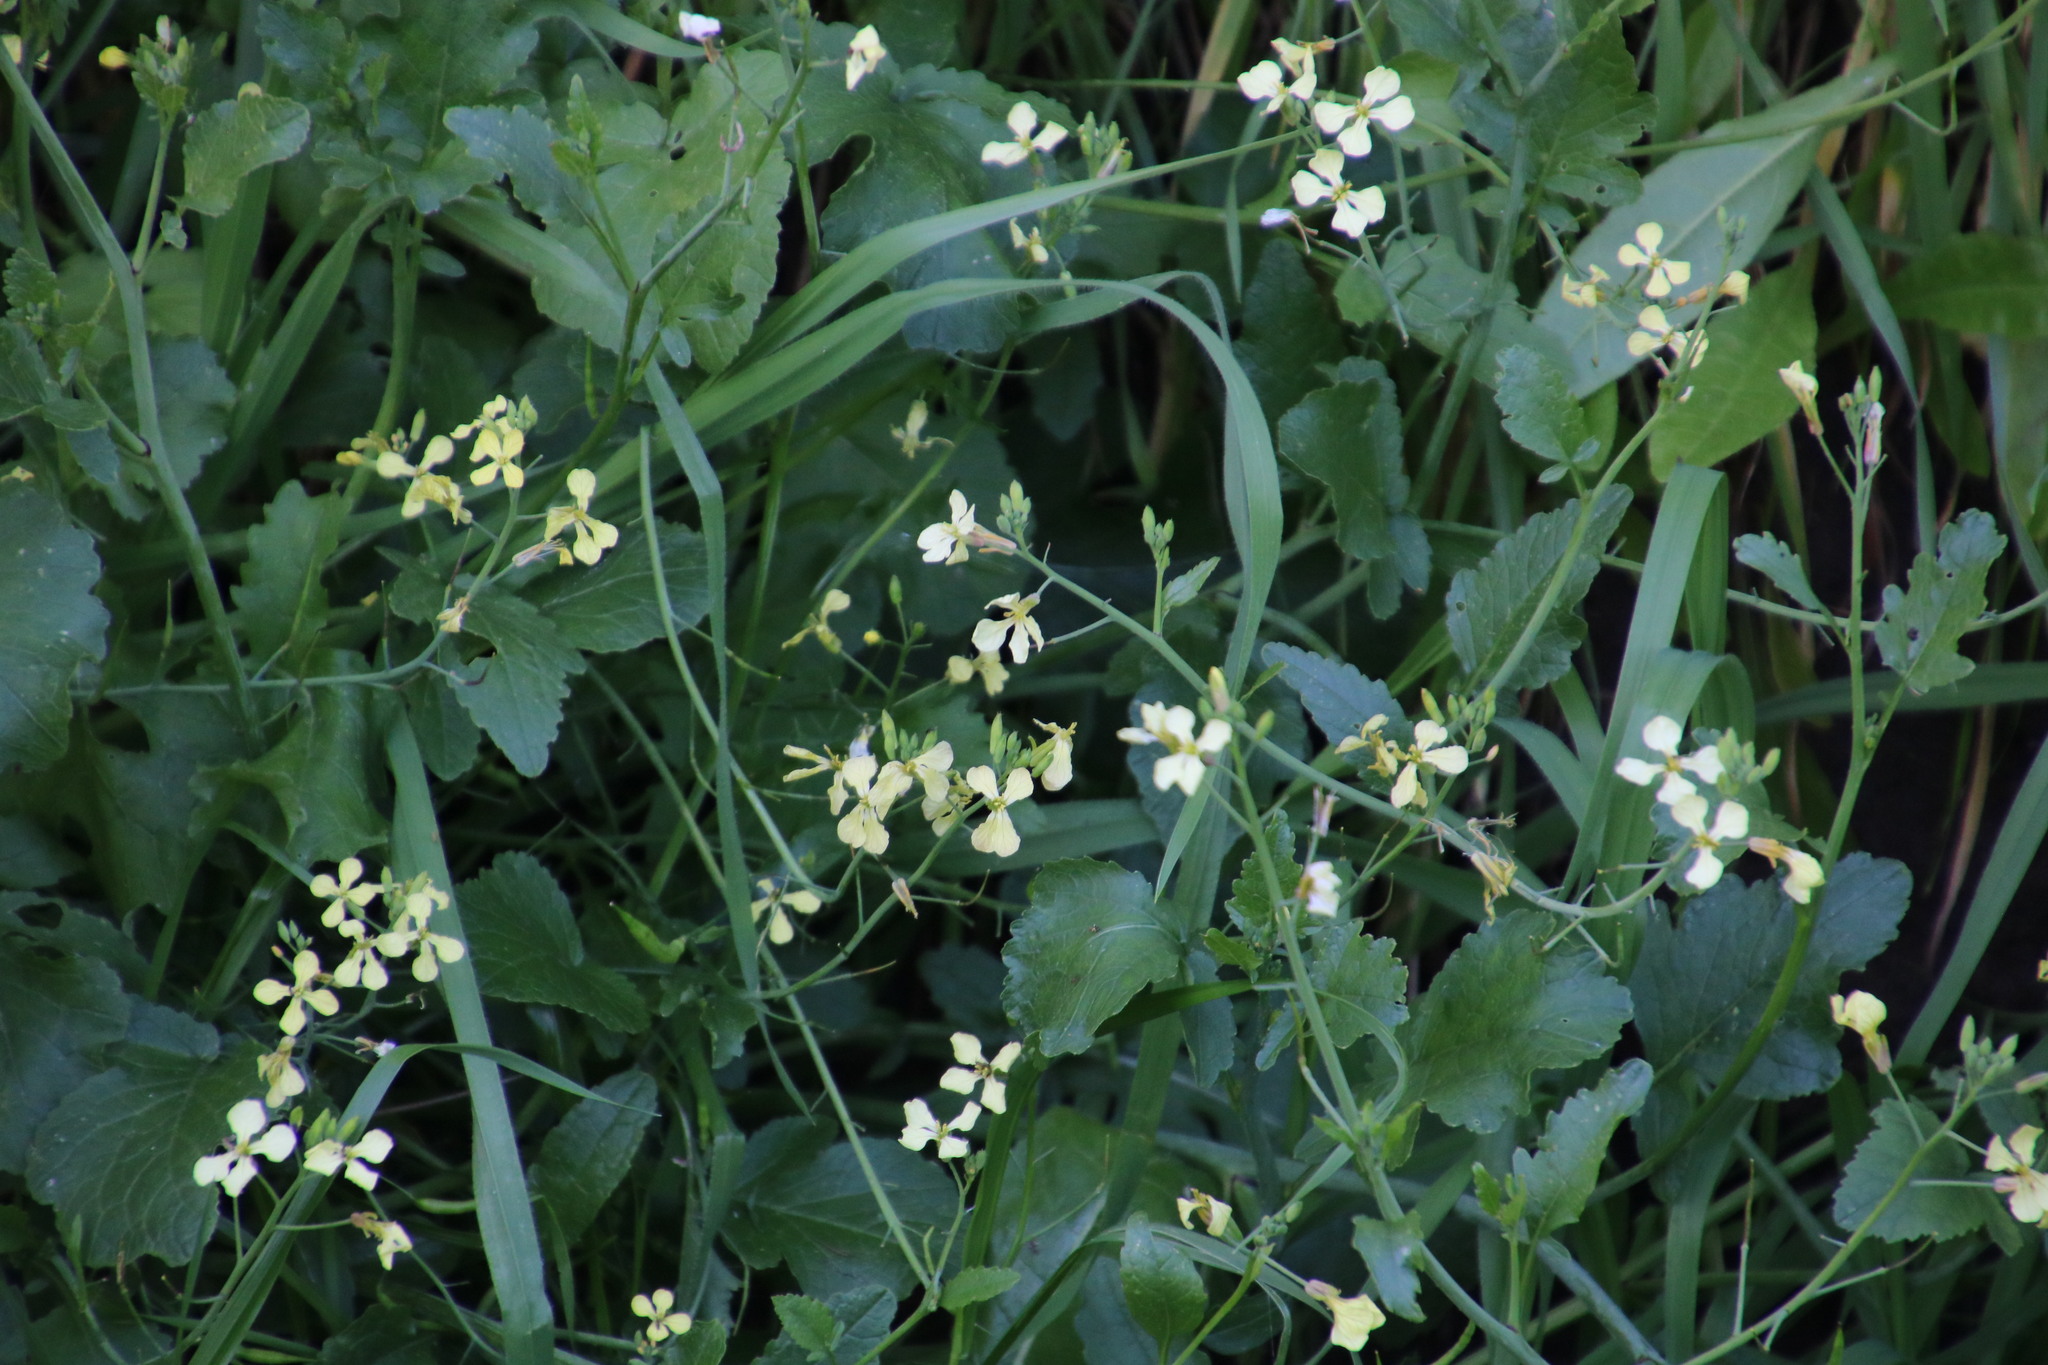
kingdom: Plantae
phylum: Tracheophyta
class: Magnoliopsida
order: Brassicales
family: Brassicaceae
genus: Raphanus
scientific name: Raphanus raphanistrum
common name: Wild radish
